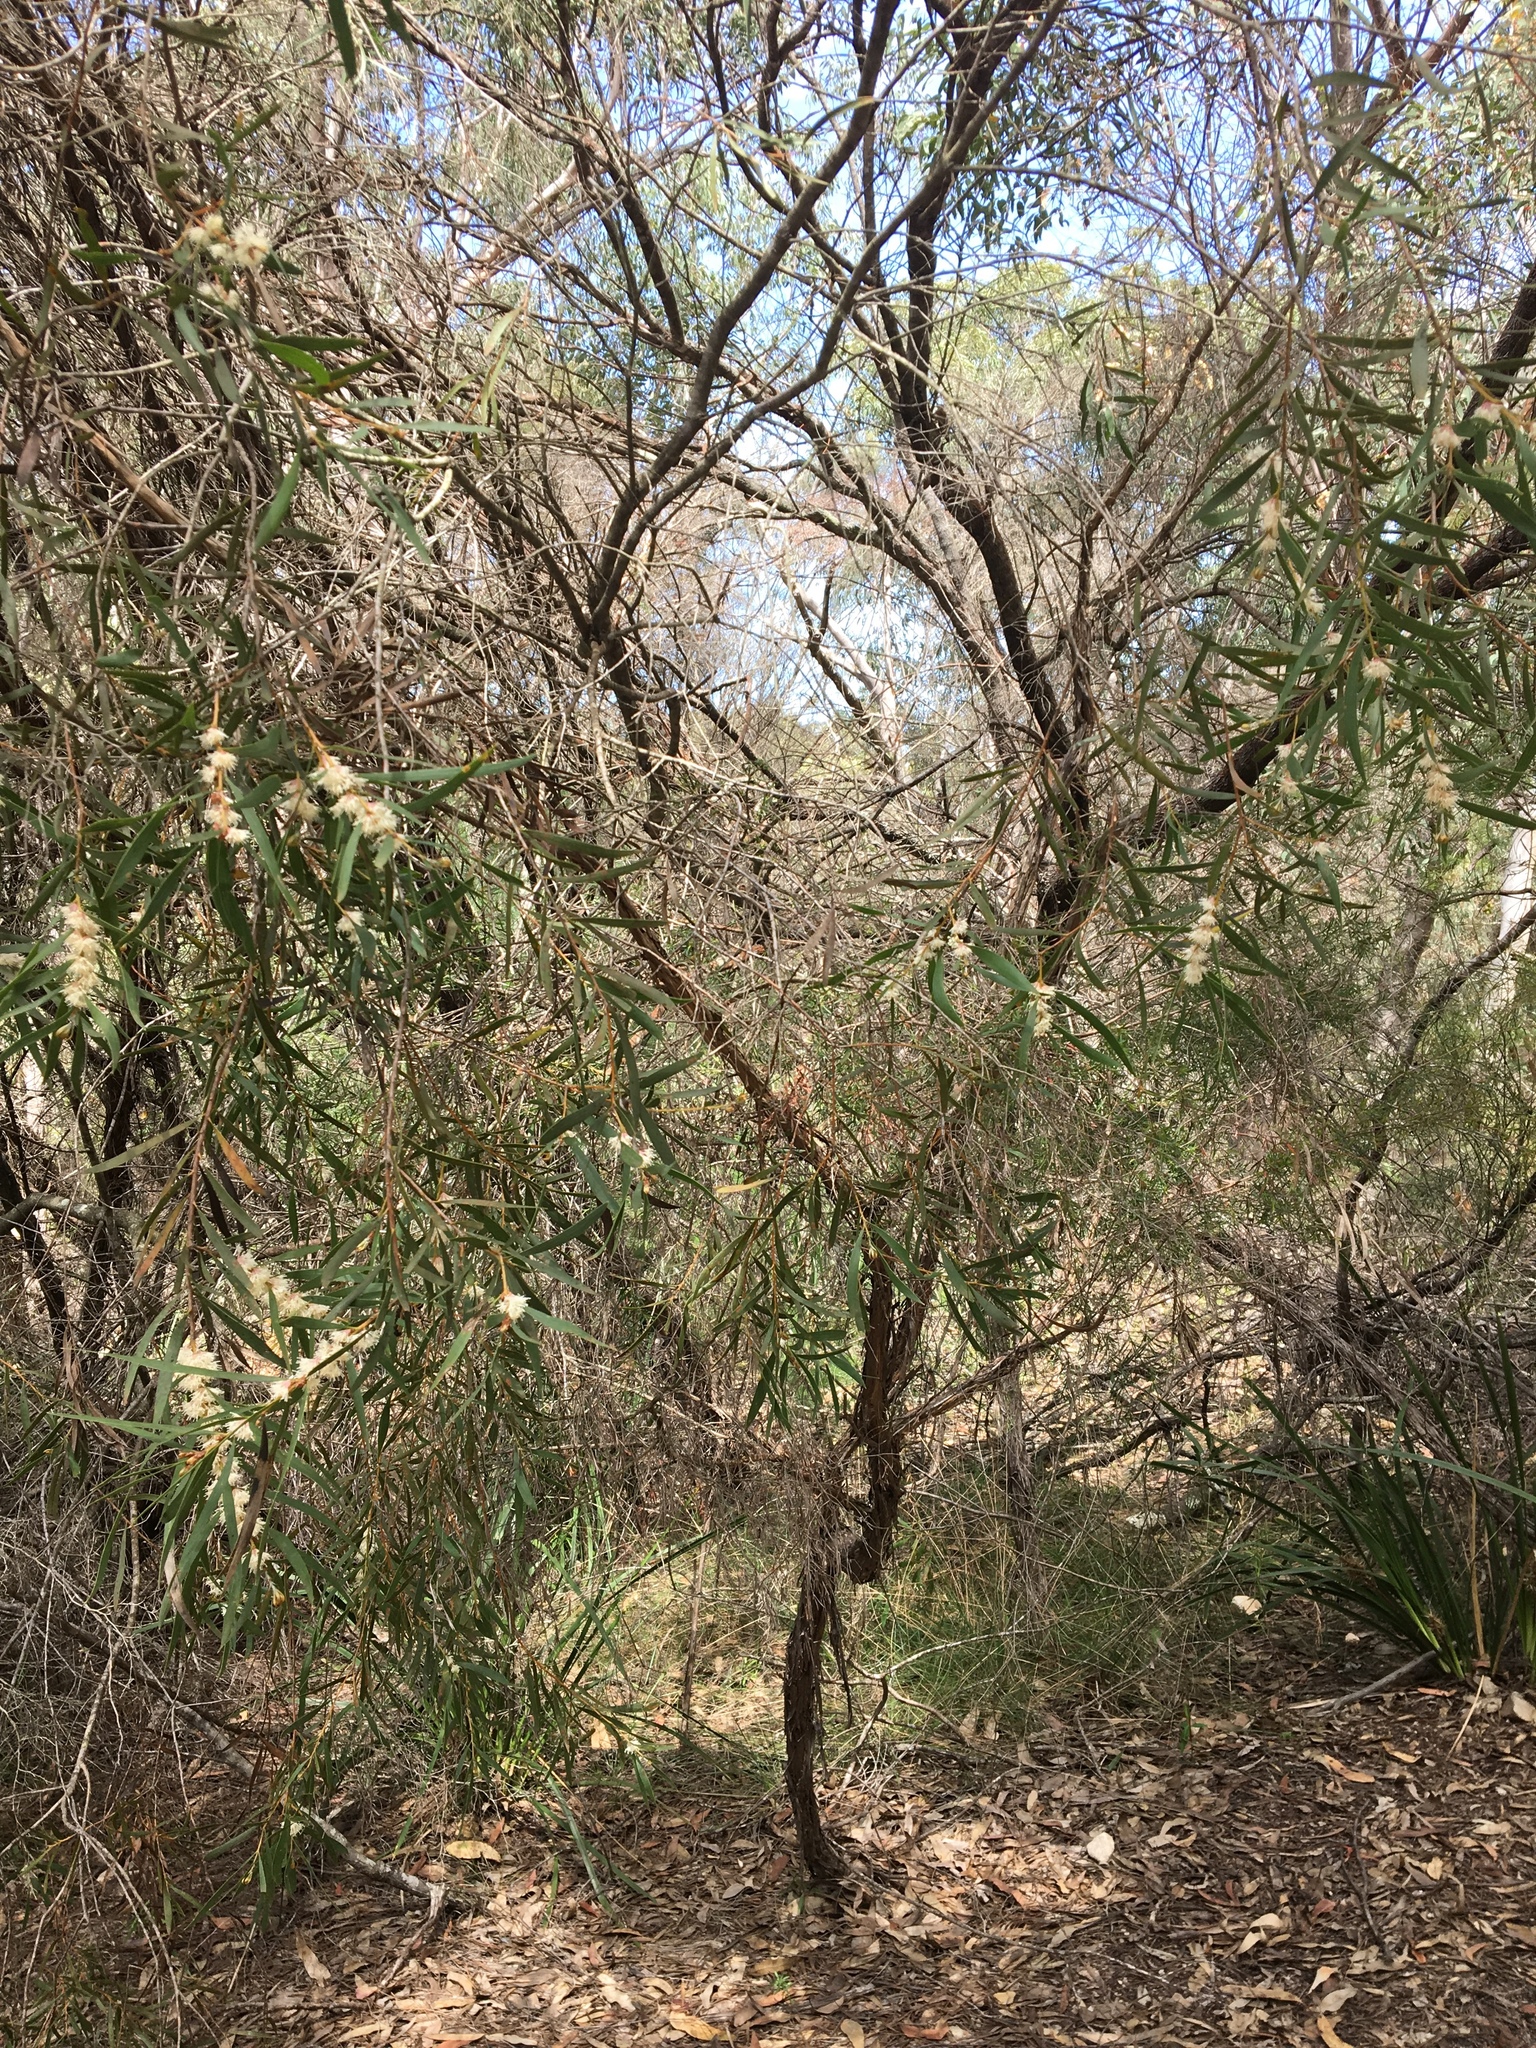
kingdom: Plantae
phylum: Tracheophyta
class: Magnoliopsida
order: Proteales
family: Proteaceae
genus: Hakea
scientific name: Hakea dactyloides
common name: Finger hakea
